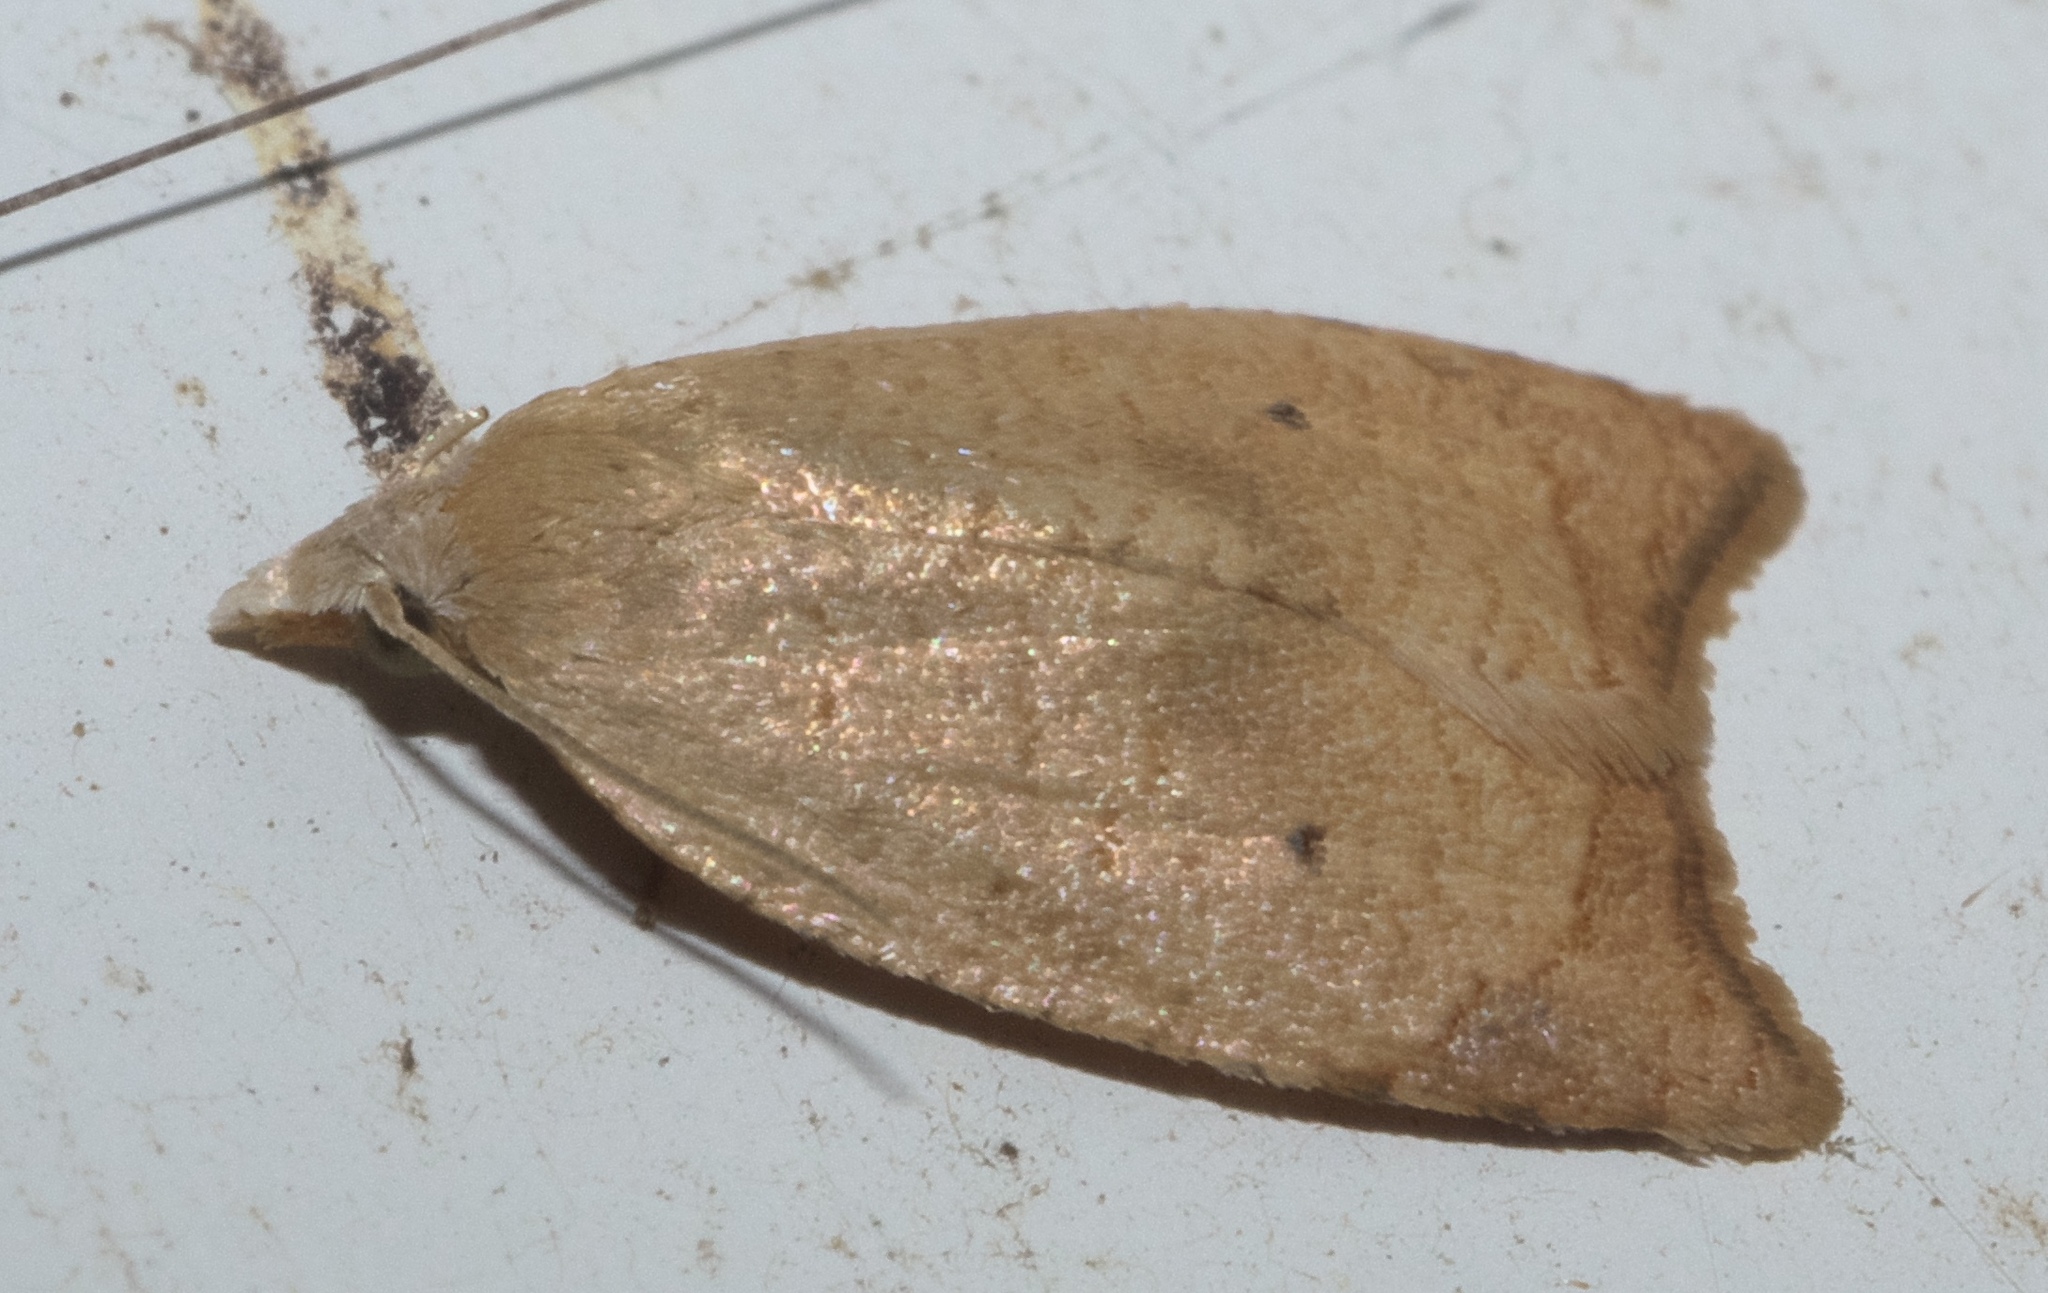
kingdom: Animalia
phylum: Arthropoda
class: Insecta
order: Lepidoptera
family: Tortricidae
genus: Coelostathma
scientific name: Coelostathma discopunctana
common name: Batman moth
